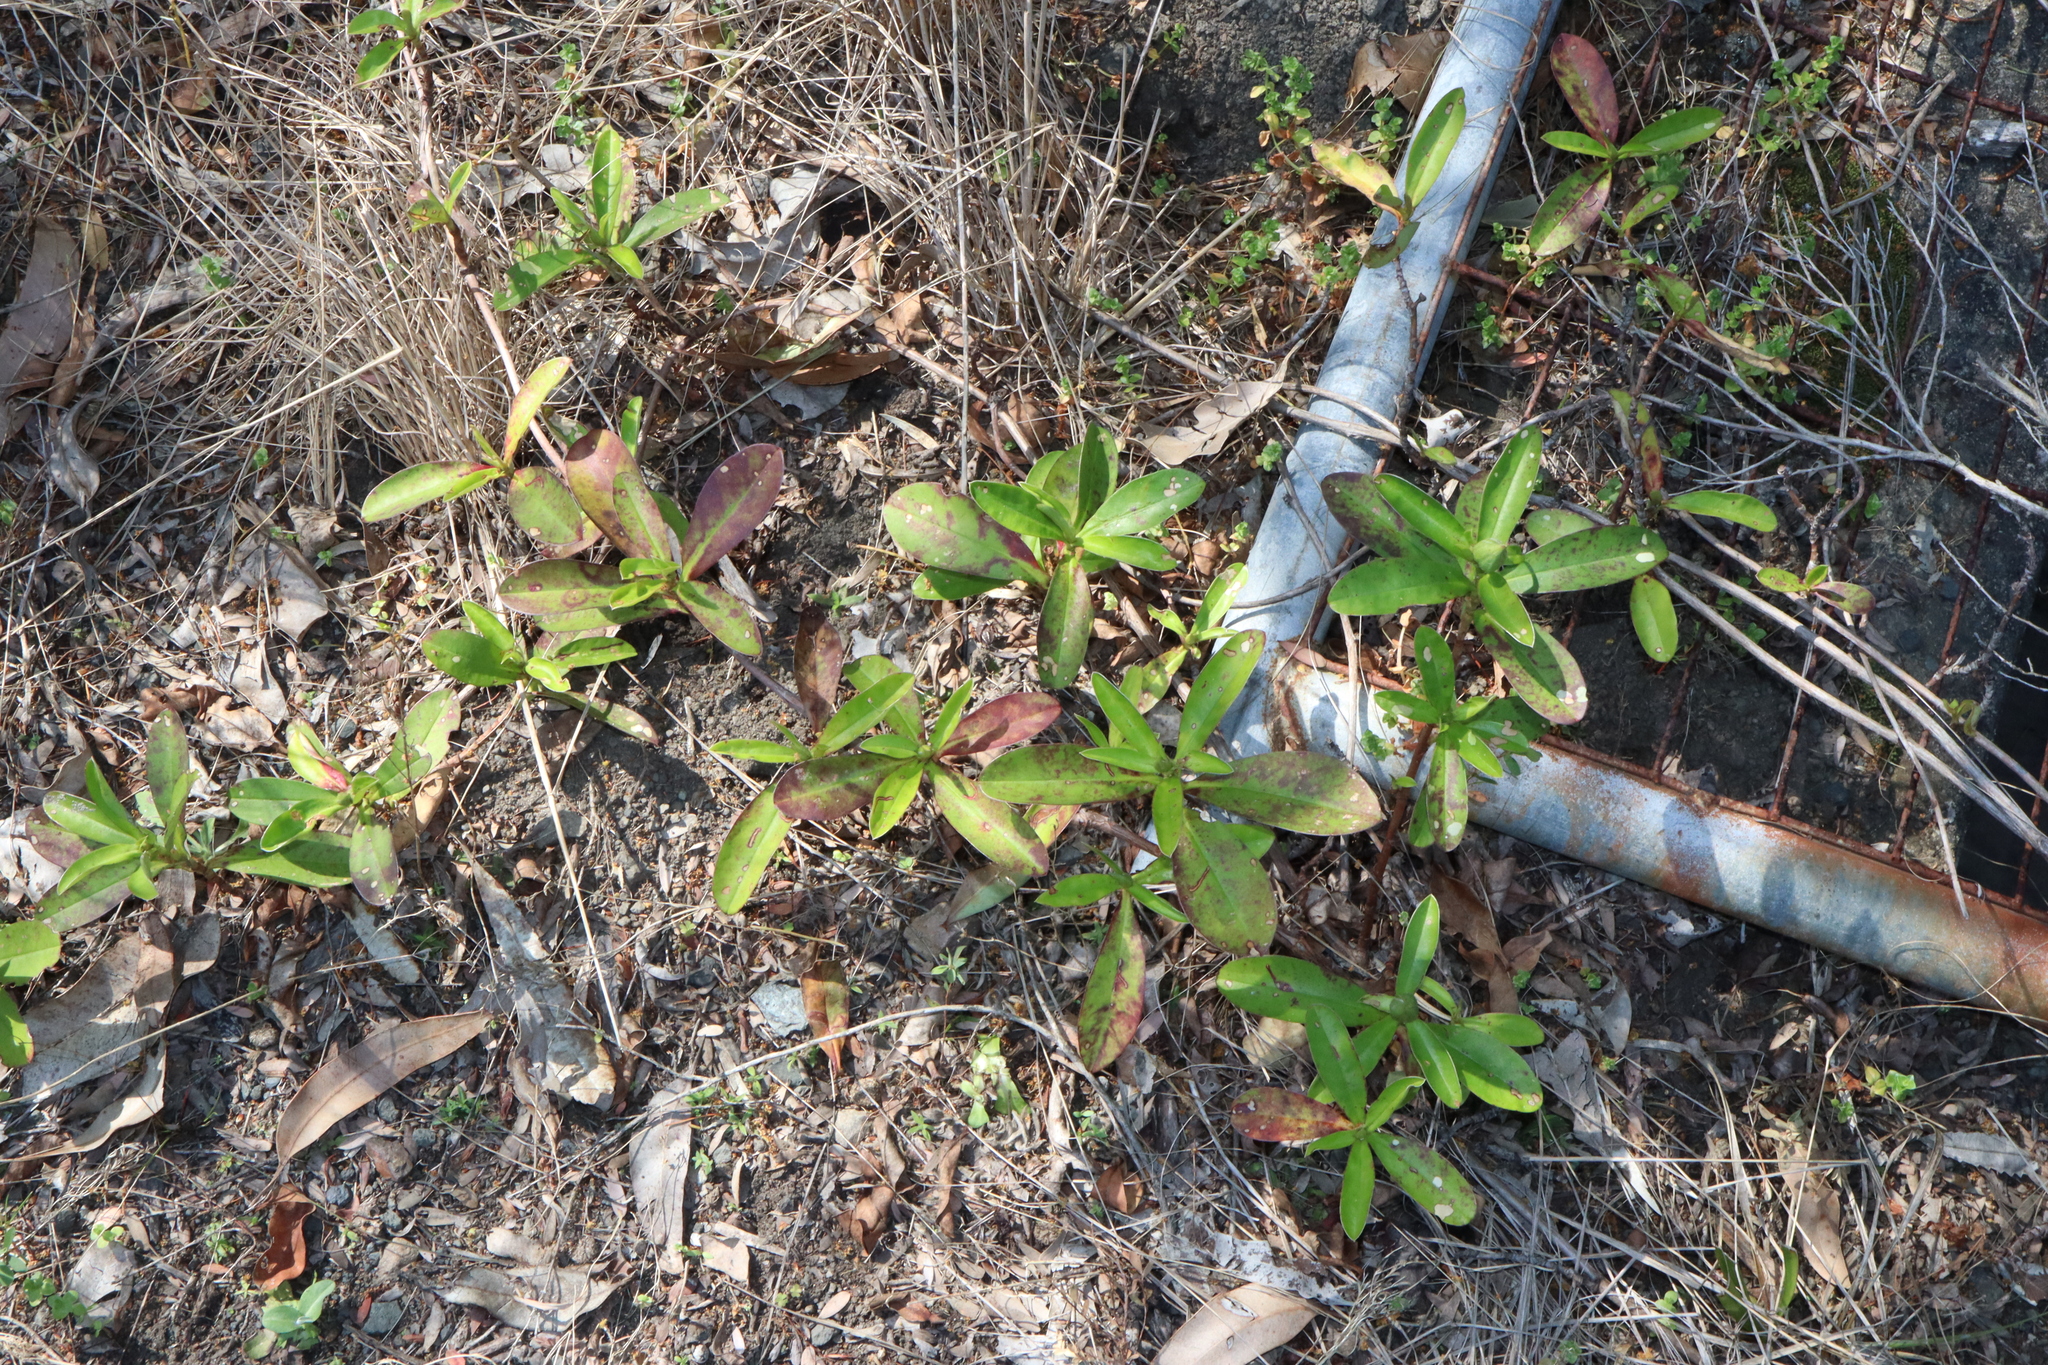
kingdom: Plantae
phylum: Tracheophyta
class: Magnoliopsida
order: Dilleniales
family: Dilleniaceae
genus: Hibbertia
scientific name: Hibbertia scandens
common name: Climbing guinea-flower
